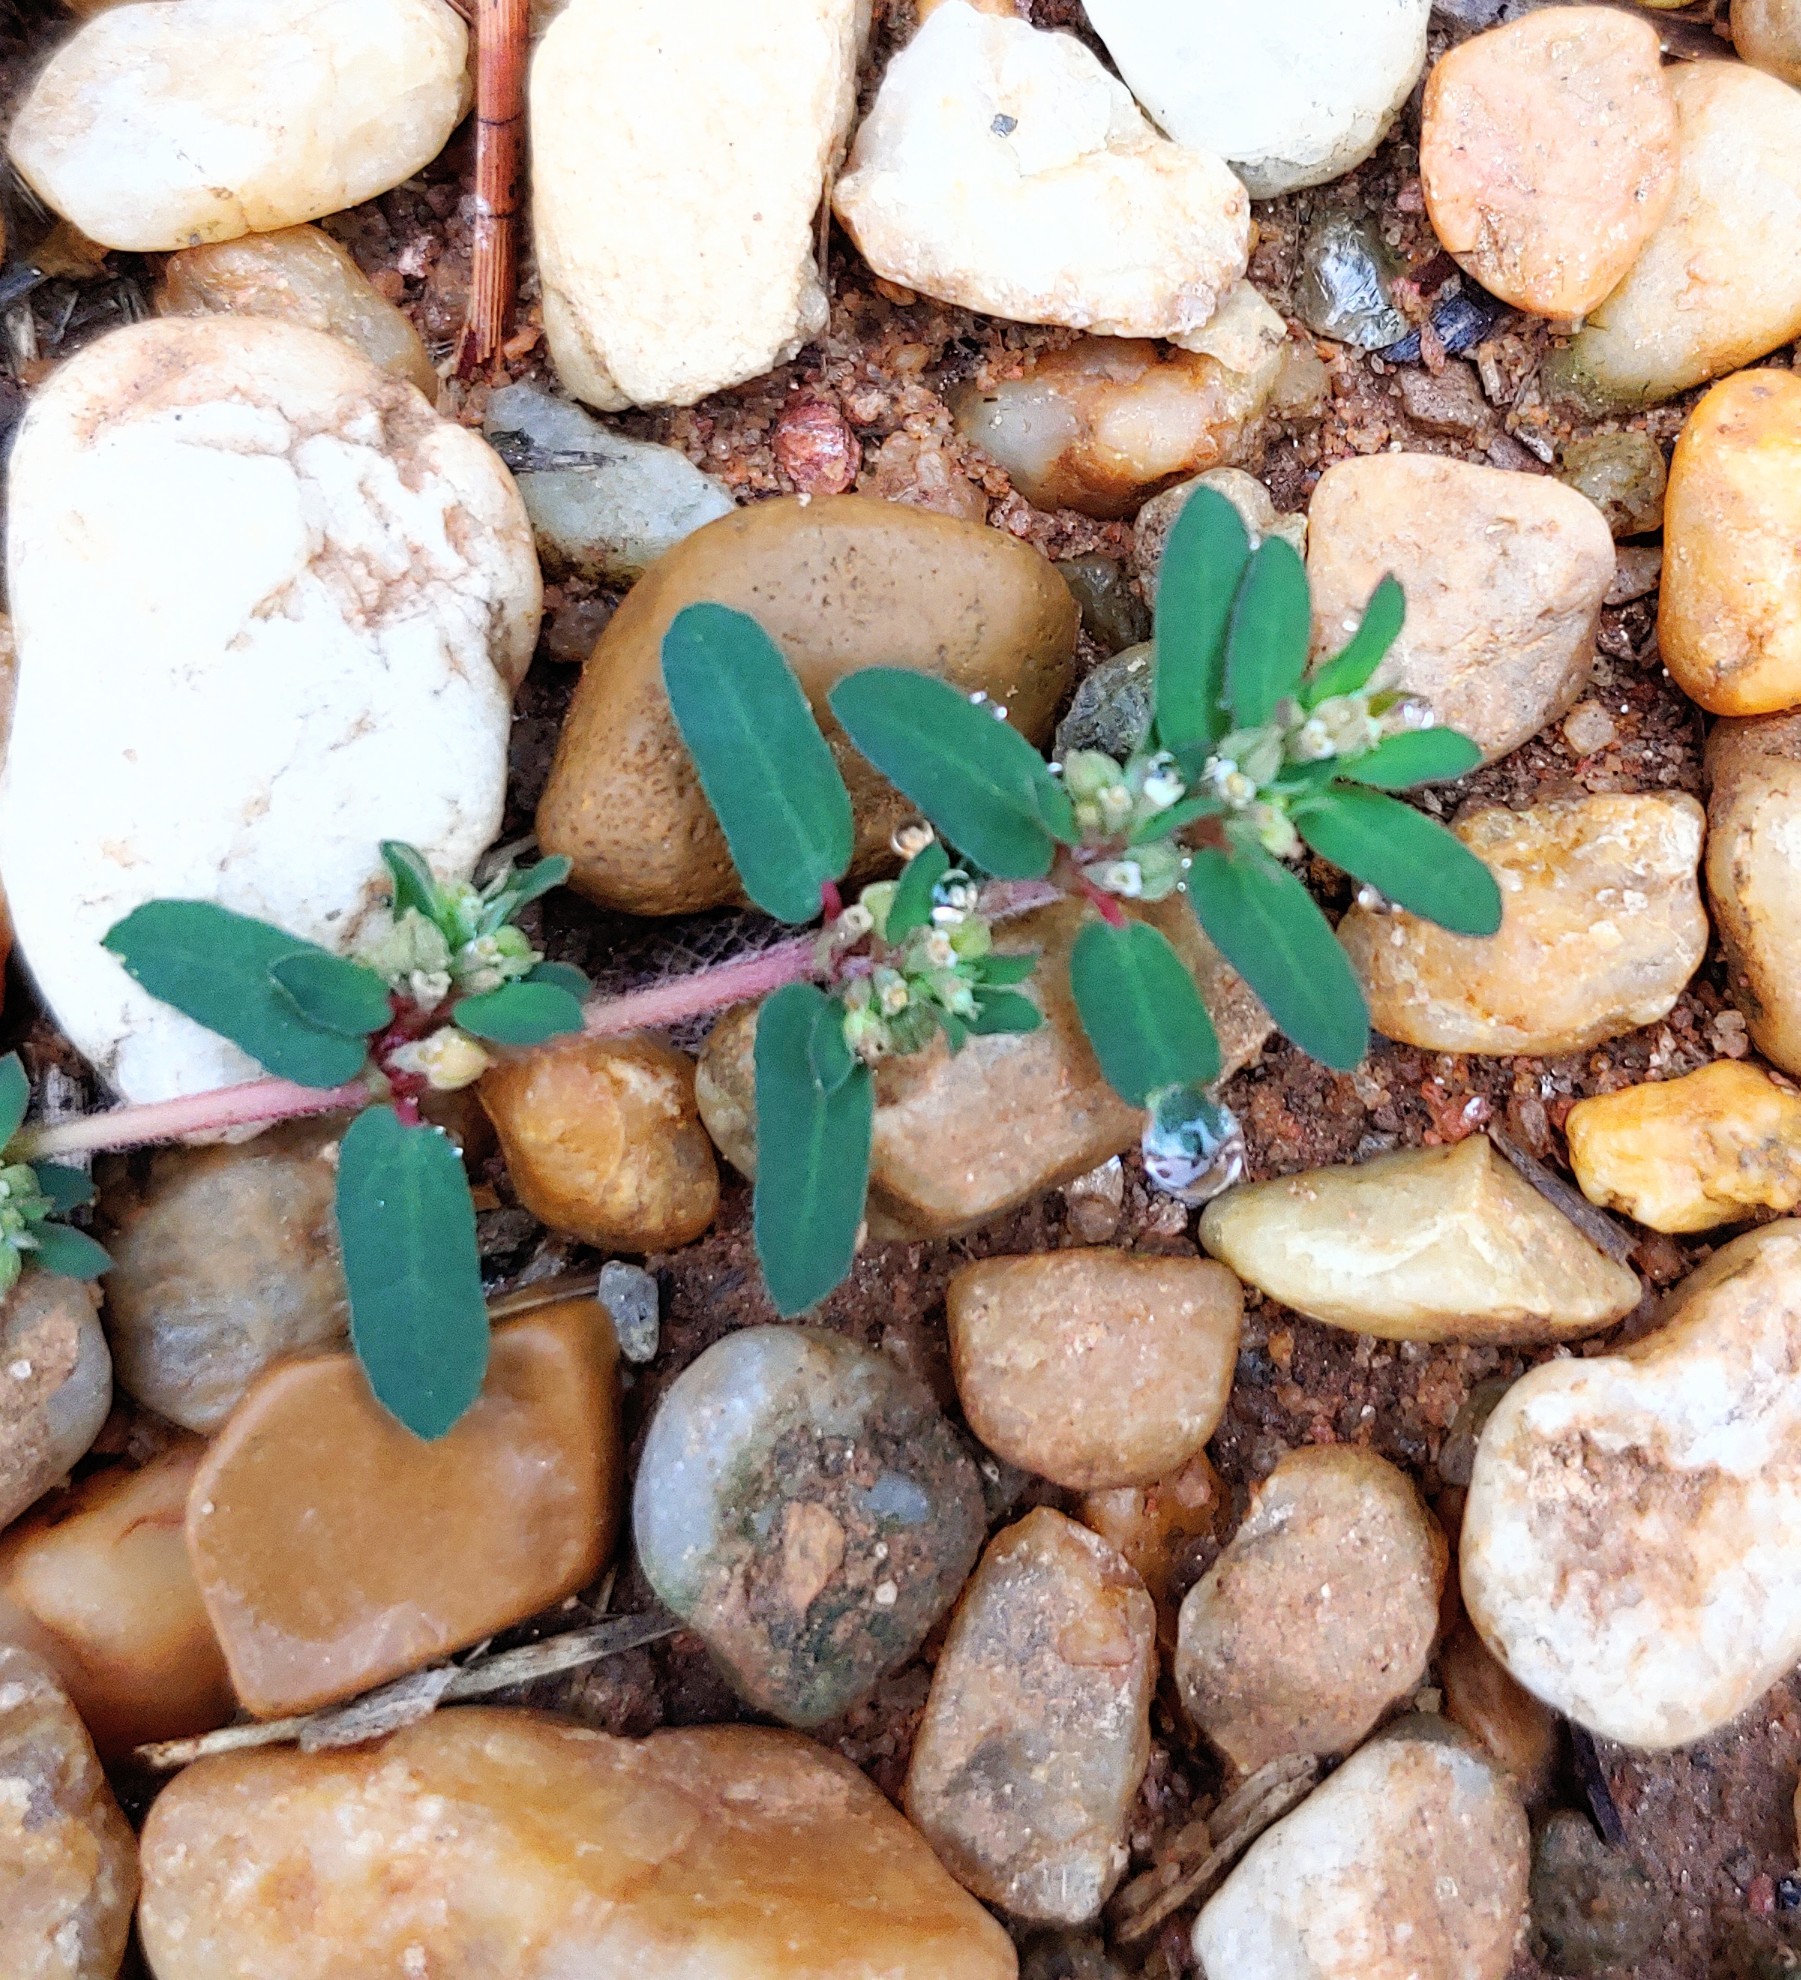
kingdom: Plantae
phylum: Tracheophyta
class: Magnoliopsida
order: Malpighiales
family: Euphorbiaceae
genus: Euphorbia
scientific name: Euphorbia maculata
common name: Spotted spurge
